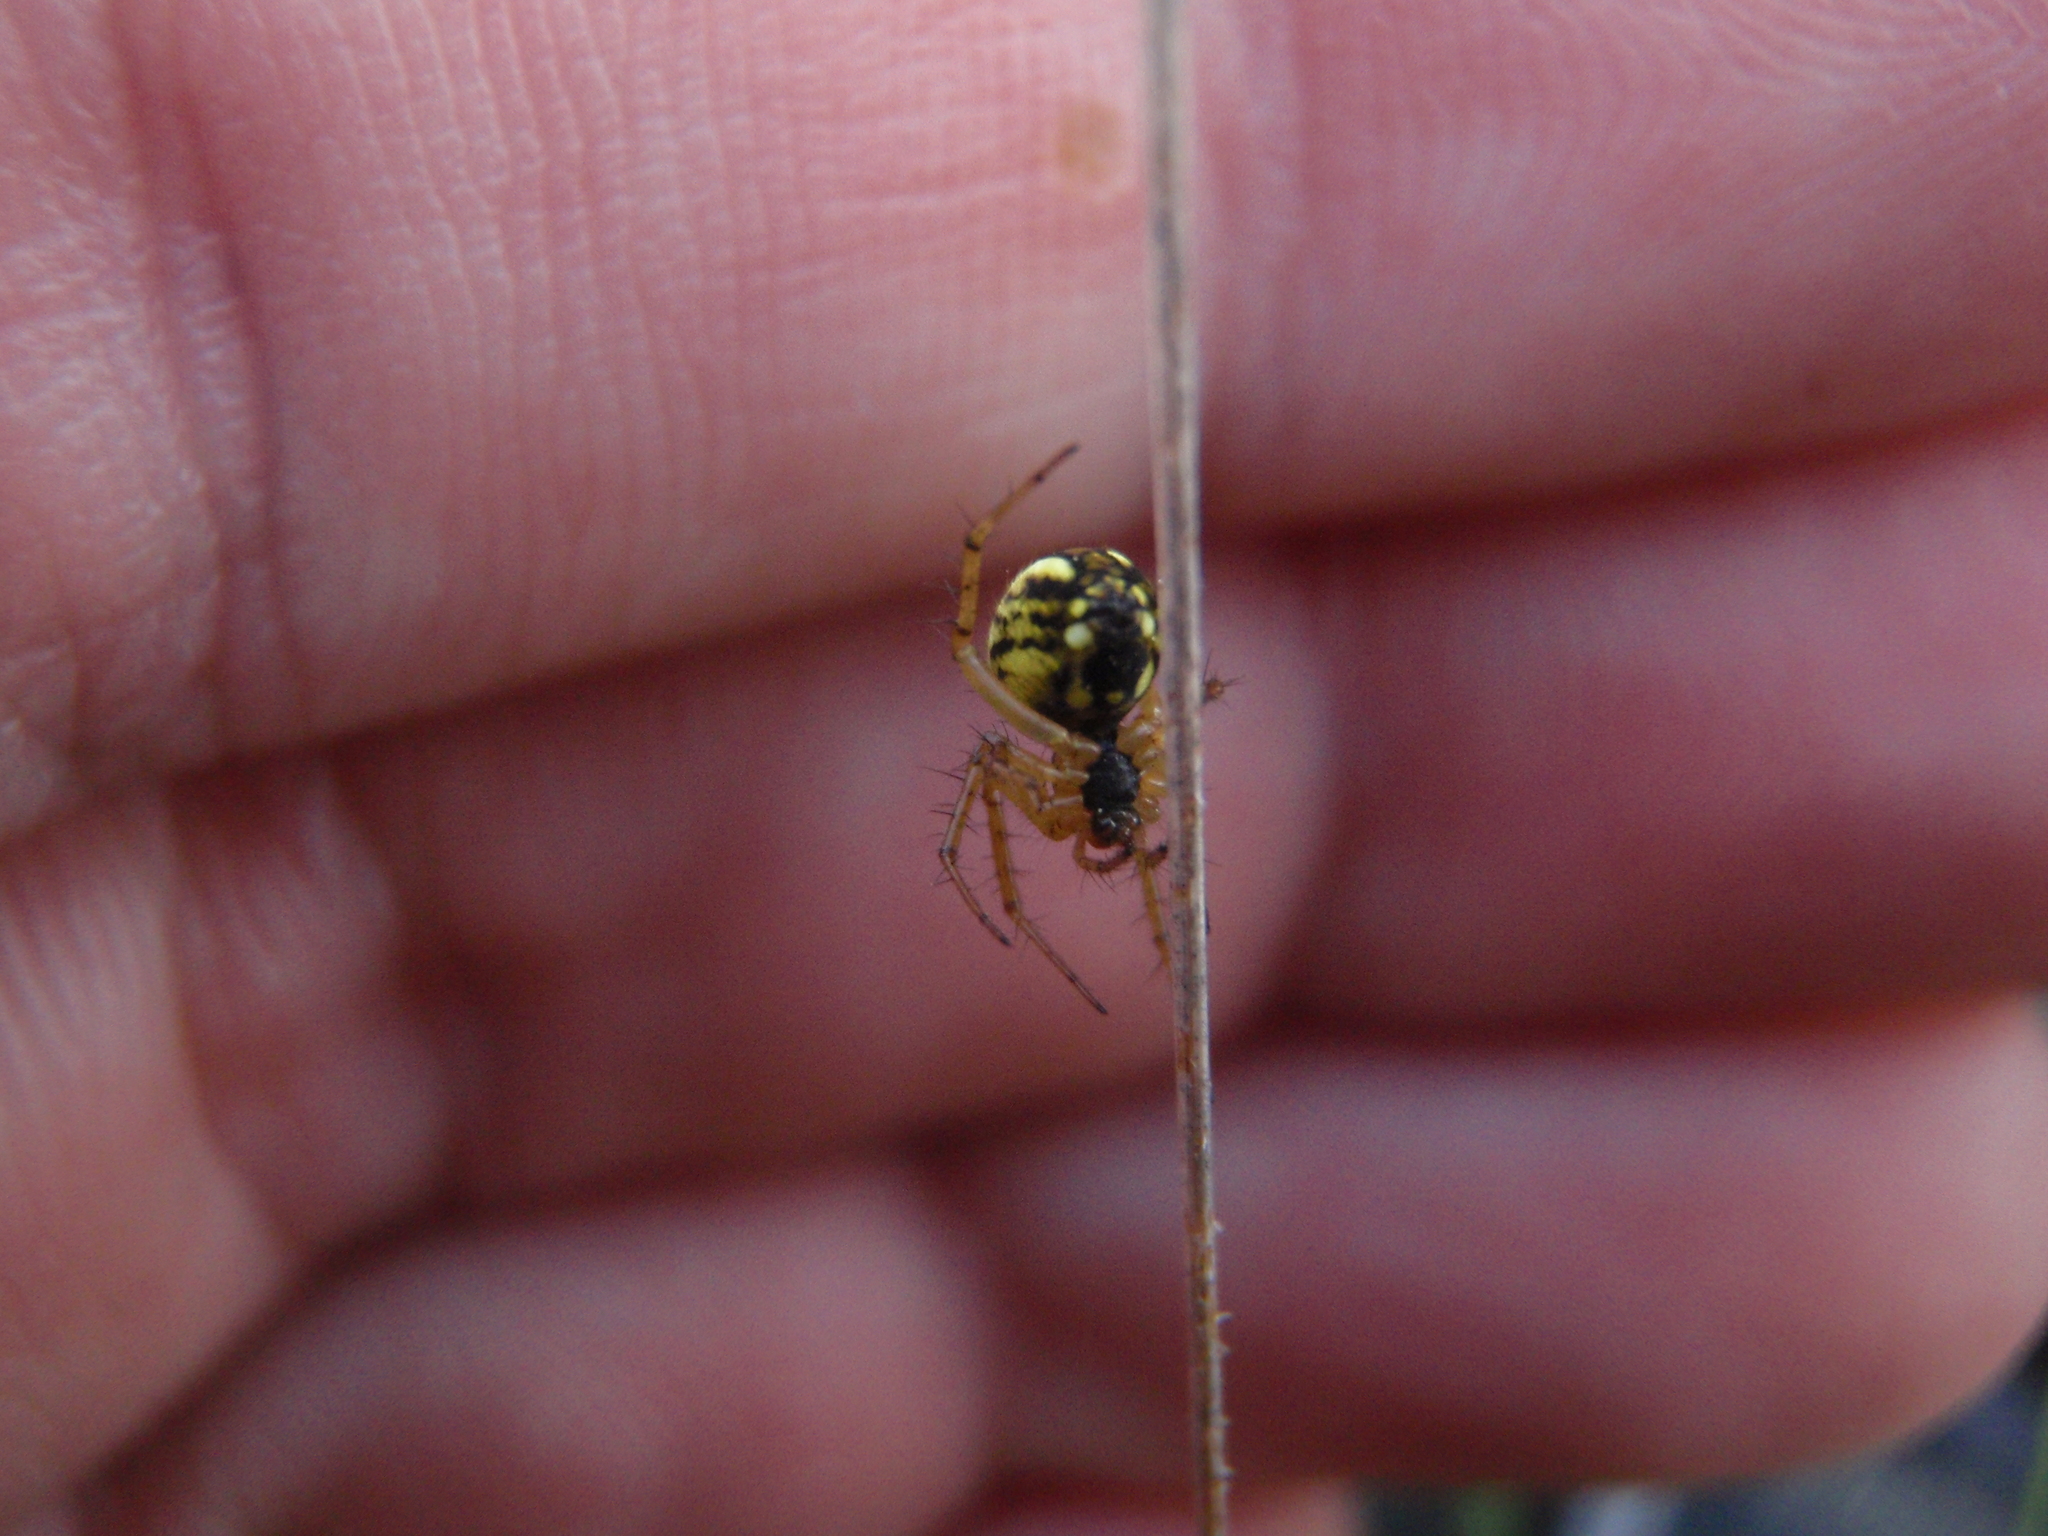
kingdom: Animalia
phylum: Arthropoda
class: Arachnida
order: Araneae
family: Araneidae
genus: Mangora
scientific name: Mangora acalypha
